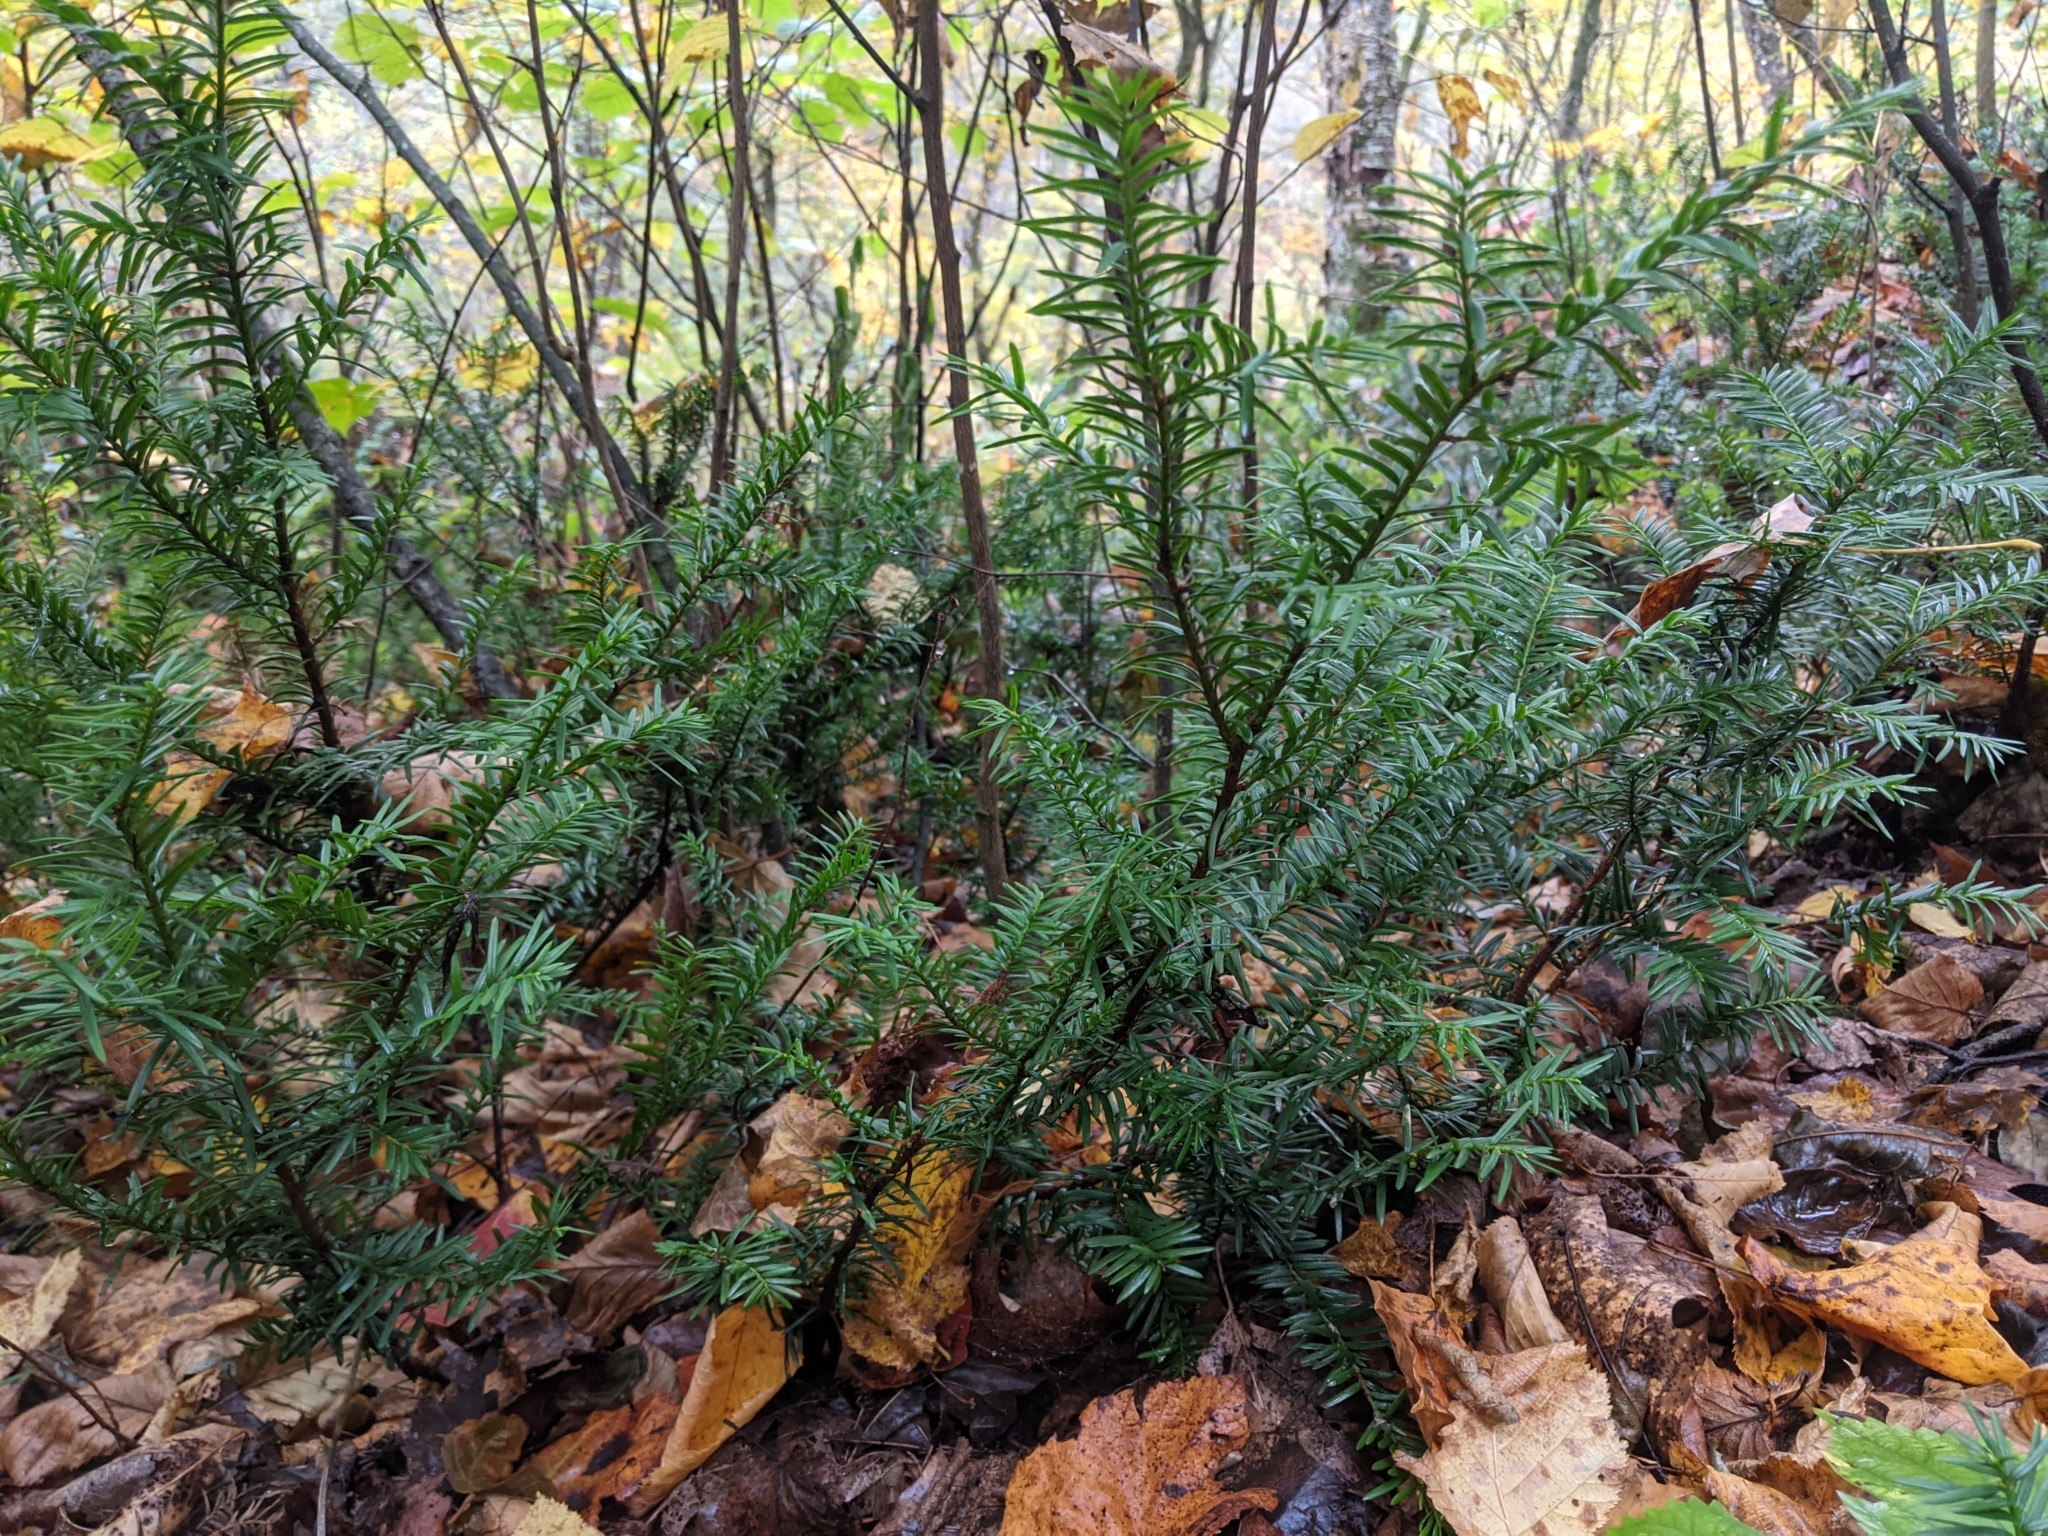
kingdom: Plantae
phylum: Tracheophyta
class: Pinopsida
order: Pinales
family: Taxaceae
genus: Taxus
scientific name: Taxus canadensis
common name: American yew
